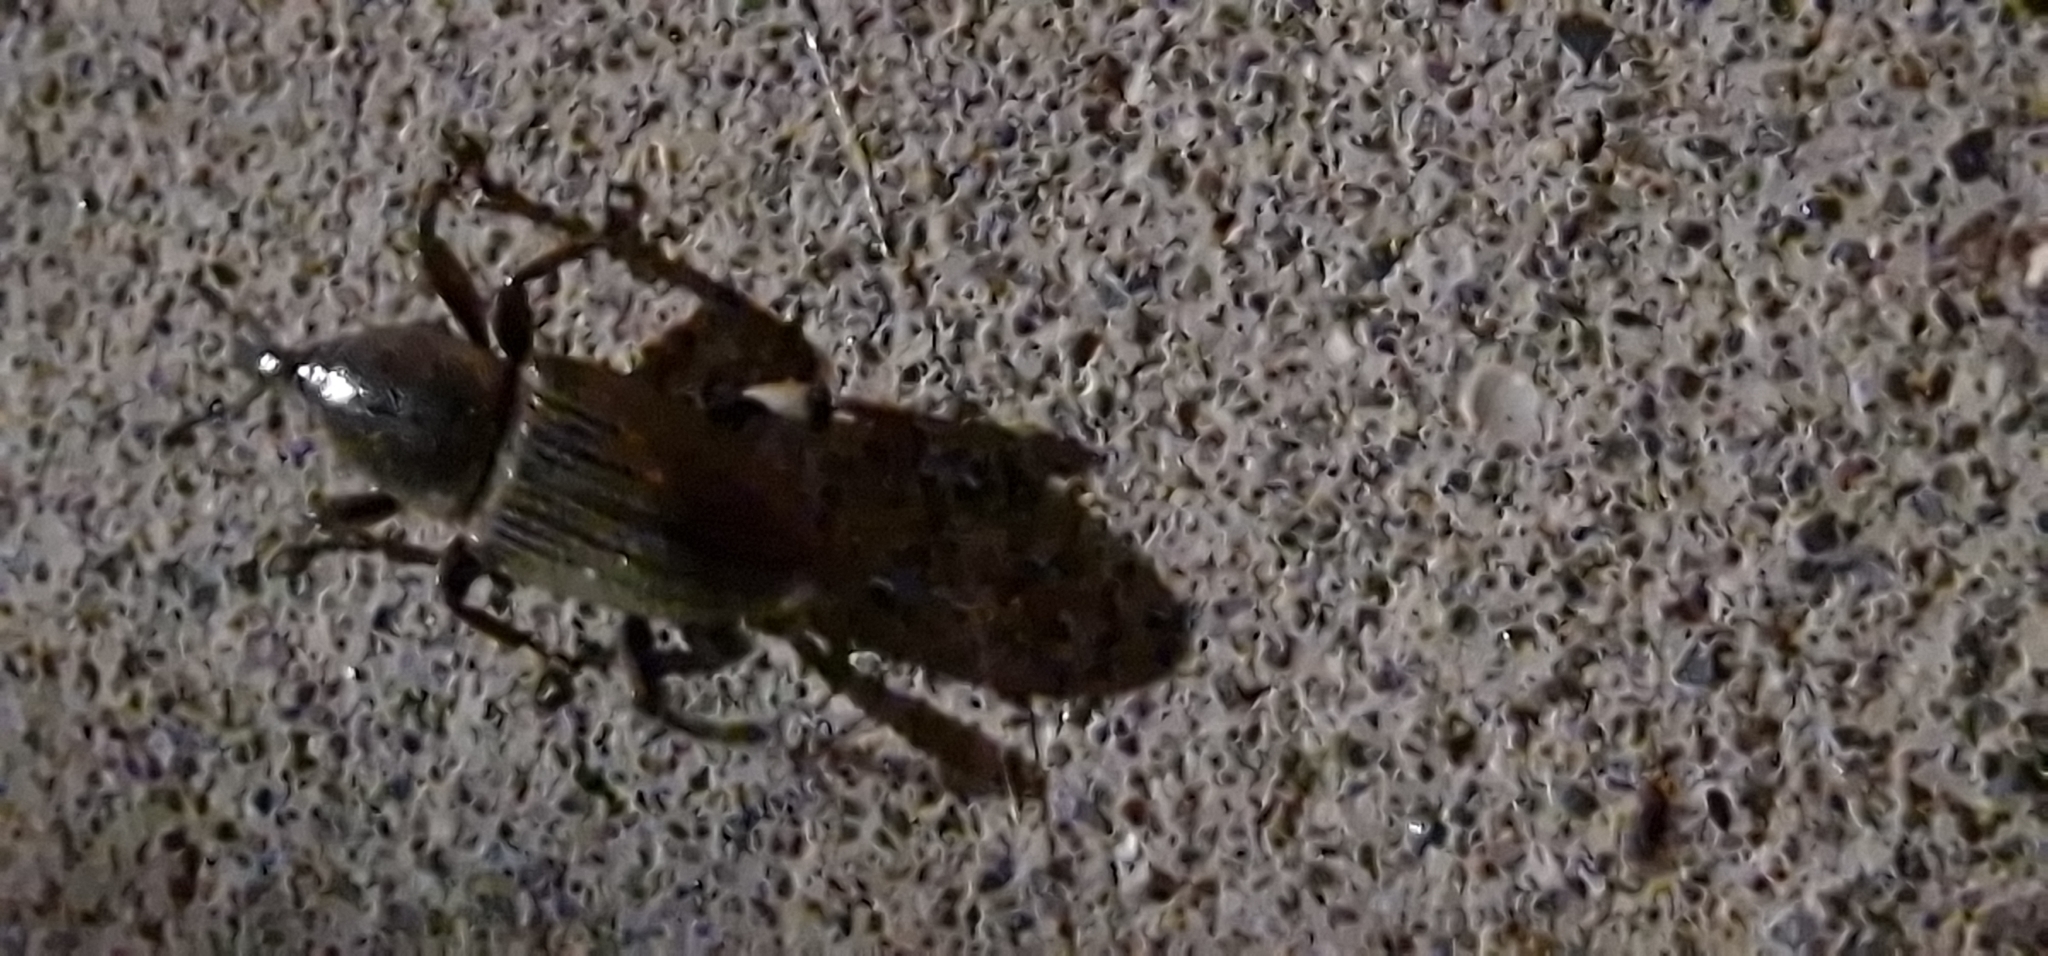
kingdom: Animalia
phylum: Arthropoda
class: Insecta
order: Coleoptera
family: Dryophthoridae
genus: Cosmopolites
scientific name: Cosmopolites sordidus
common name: Palm weevil
